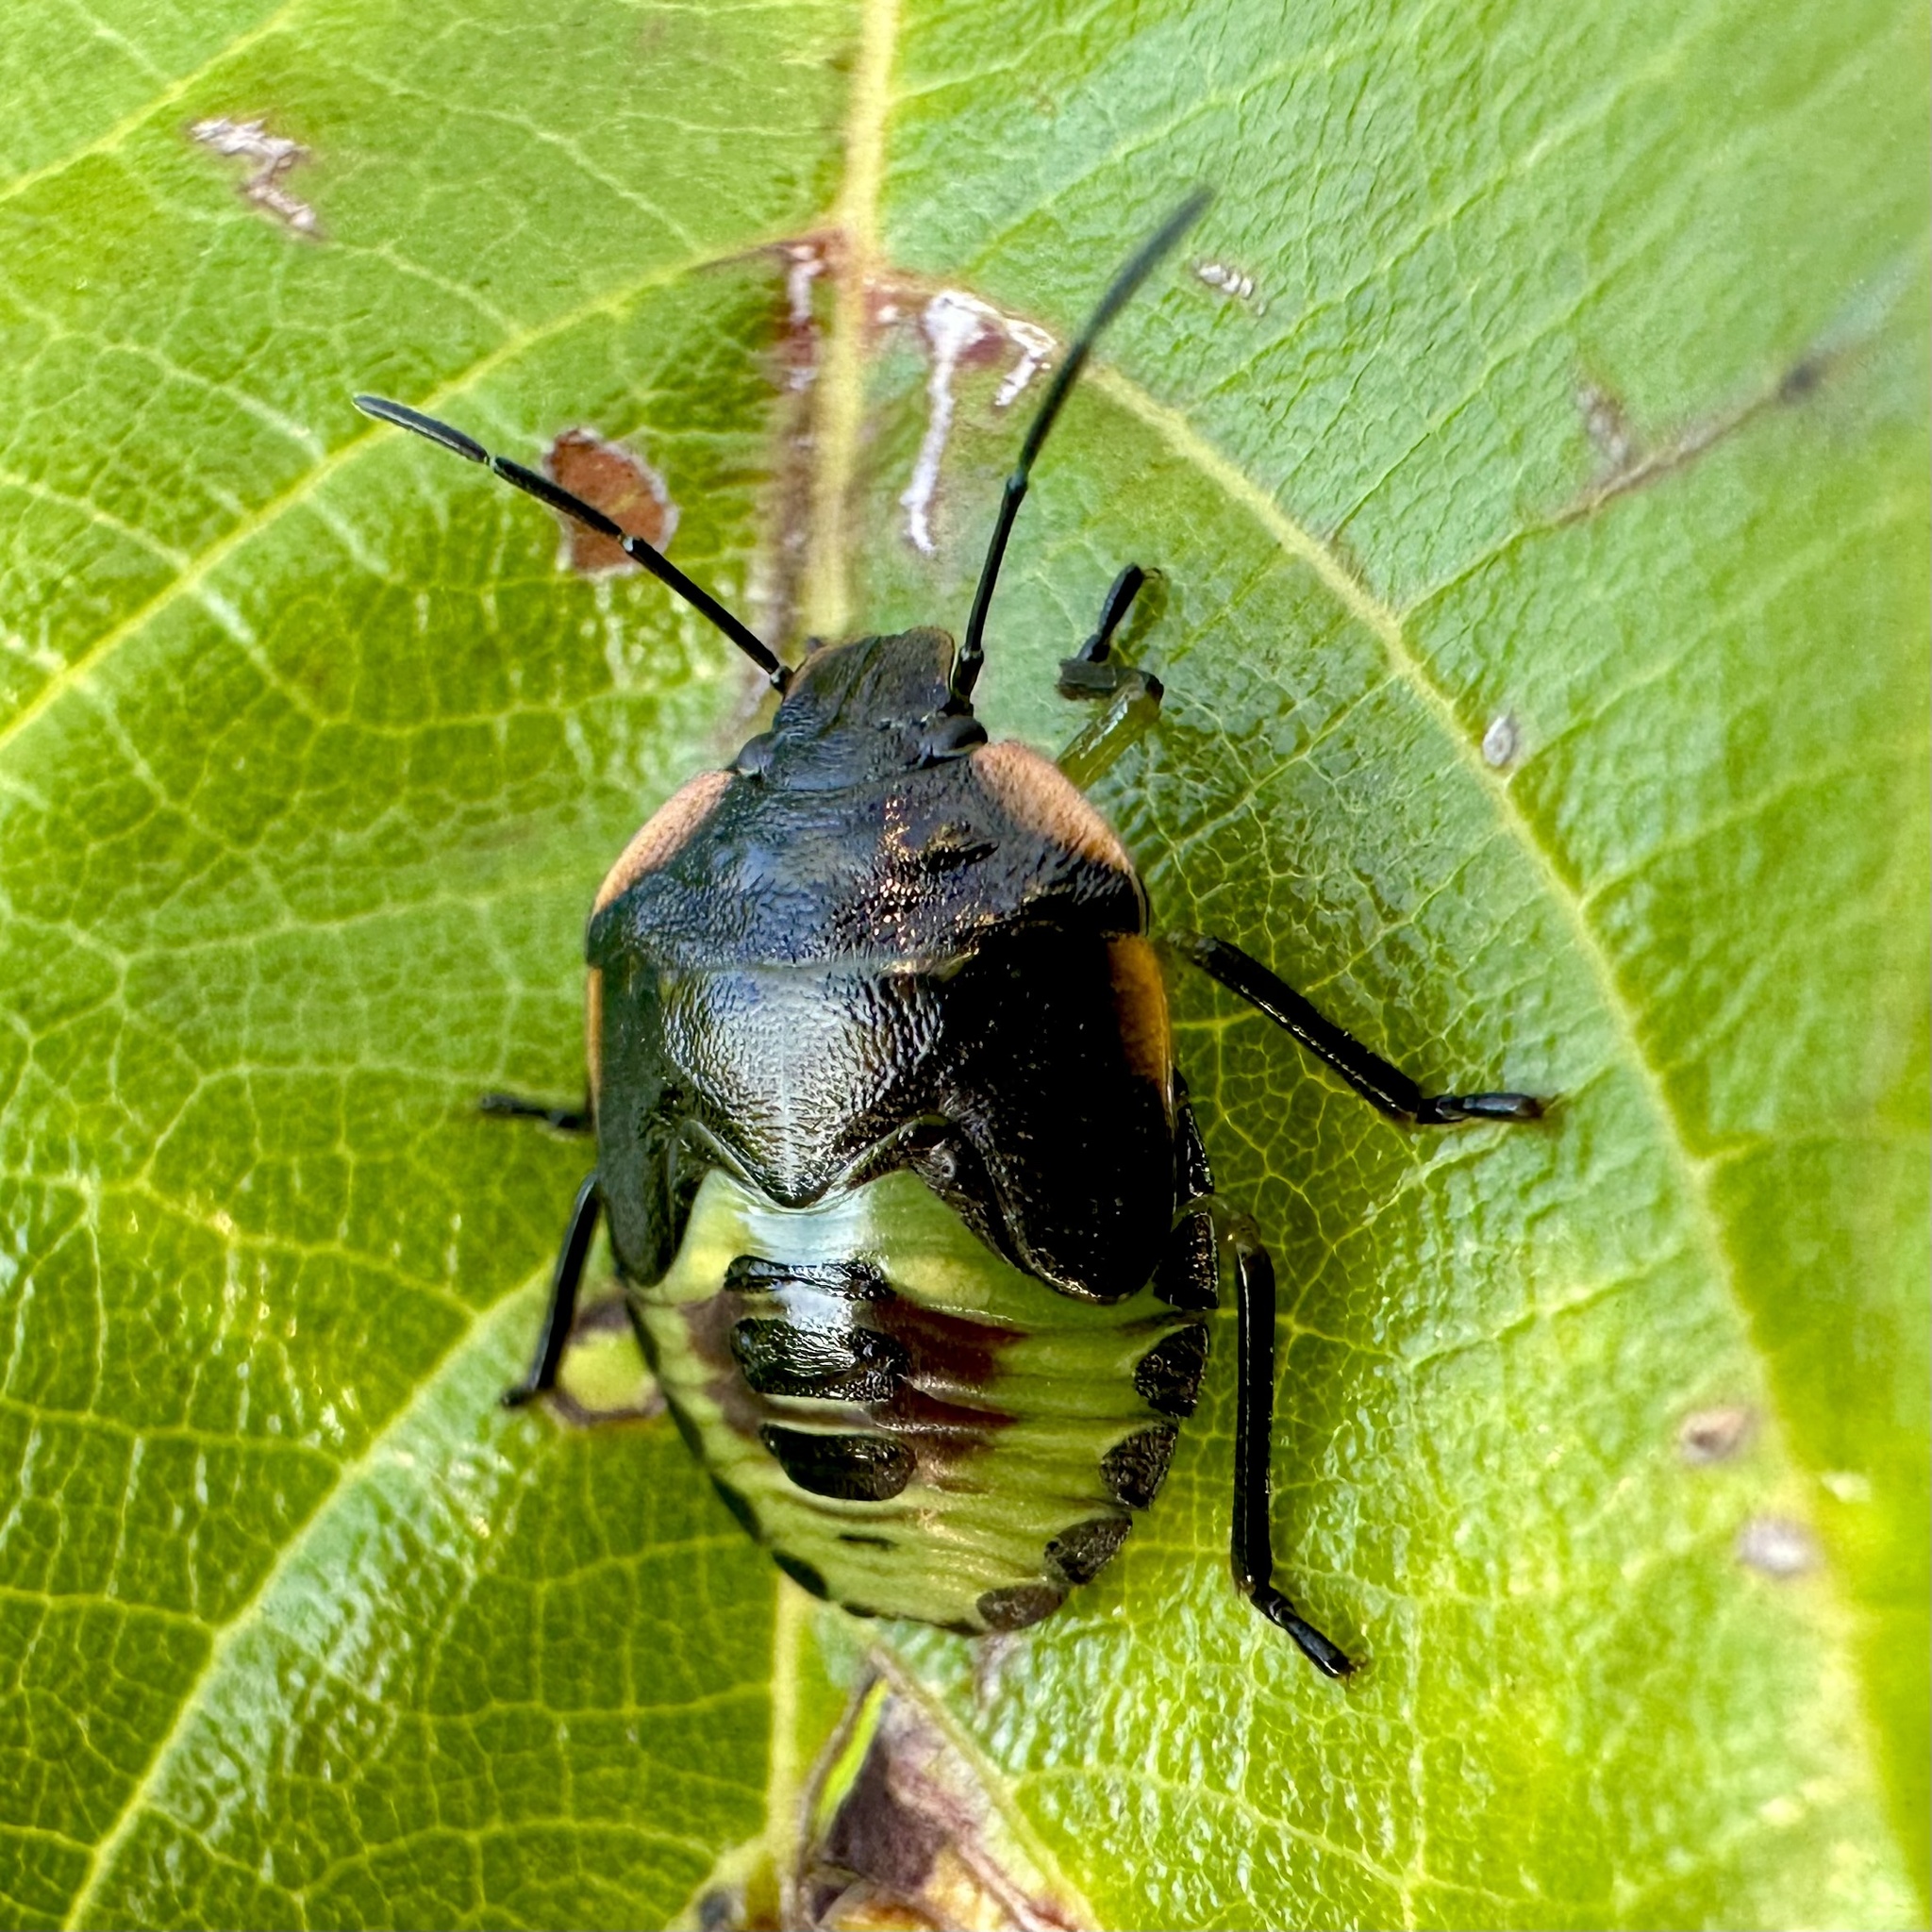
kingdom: Animalia
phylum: Arthropoda
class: Insecta
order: Hemiptera
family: Pentatomidae
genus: Chinavia
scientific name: Chinavia hilaris
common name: Green stink bug
